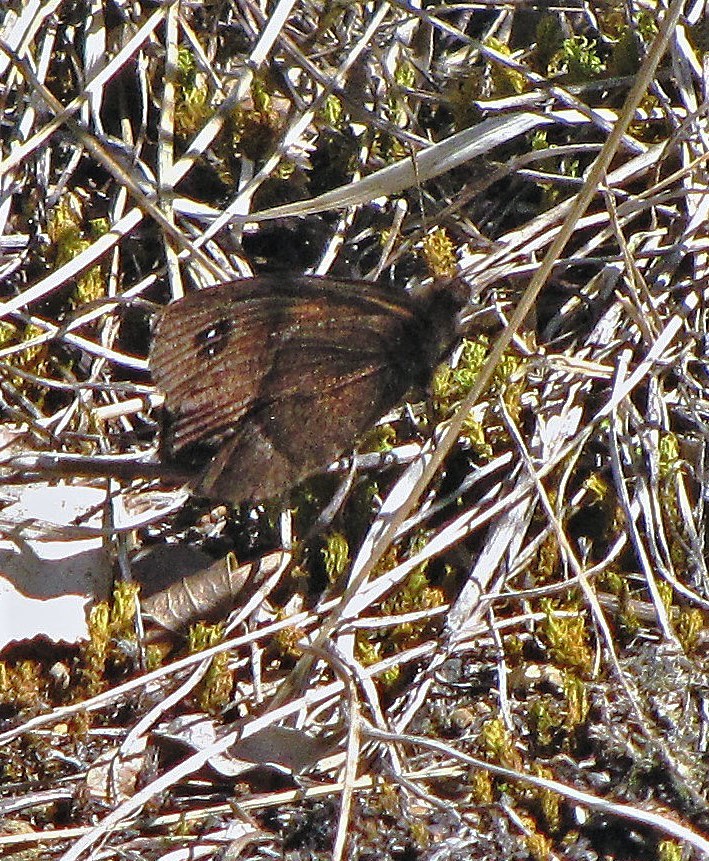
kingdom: Animalia
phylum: Arthropoda
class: Insecta
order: Lepidoptera
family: Nymphalidae
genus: Tetraphlebia
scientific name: Tetraphlebia germainii
